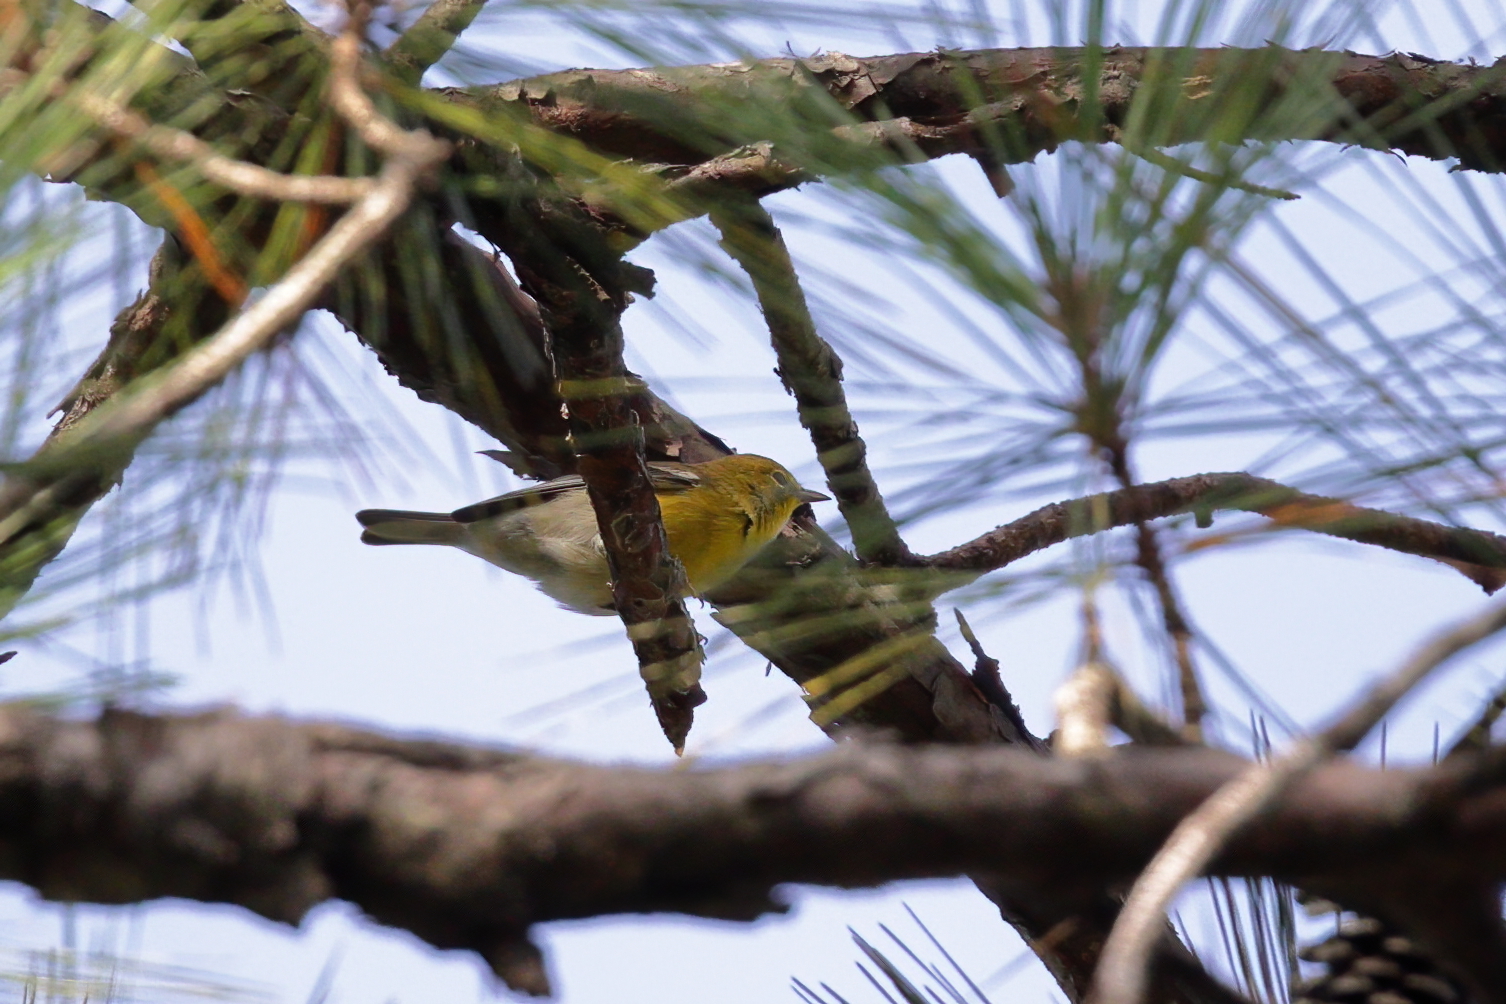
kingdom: Animalia
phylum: Chordata
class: Aves
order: Passeriformes
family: Parulidae
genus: Setophaga
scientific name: Setophaga pinus
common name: Pine warbler
